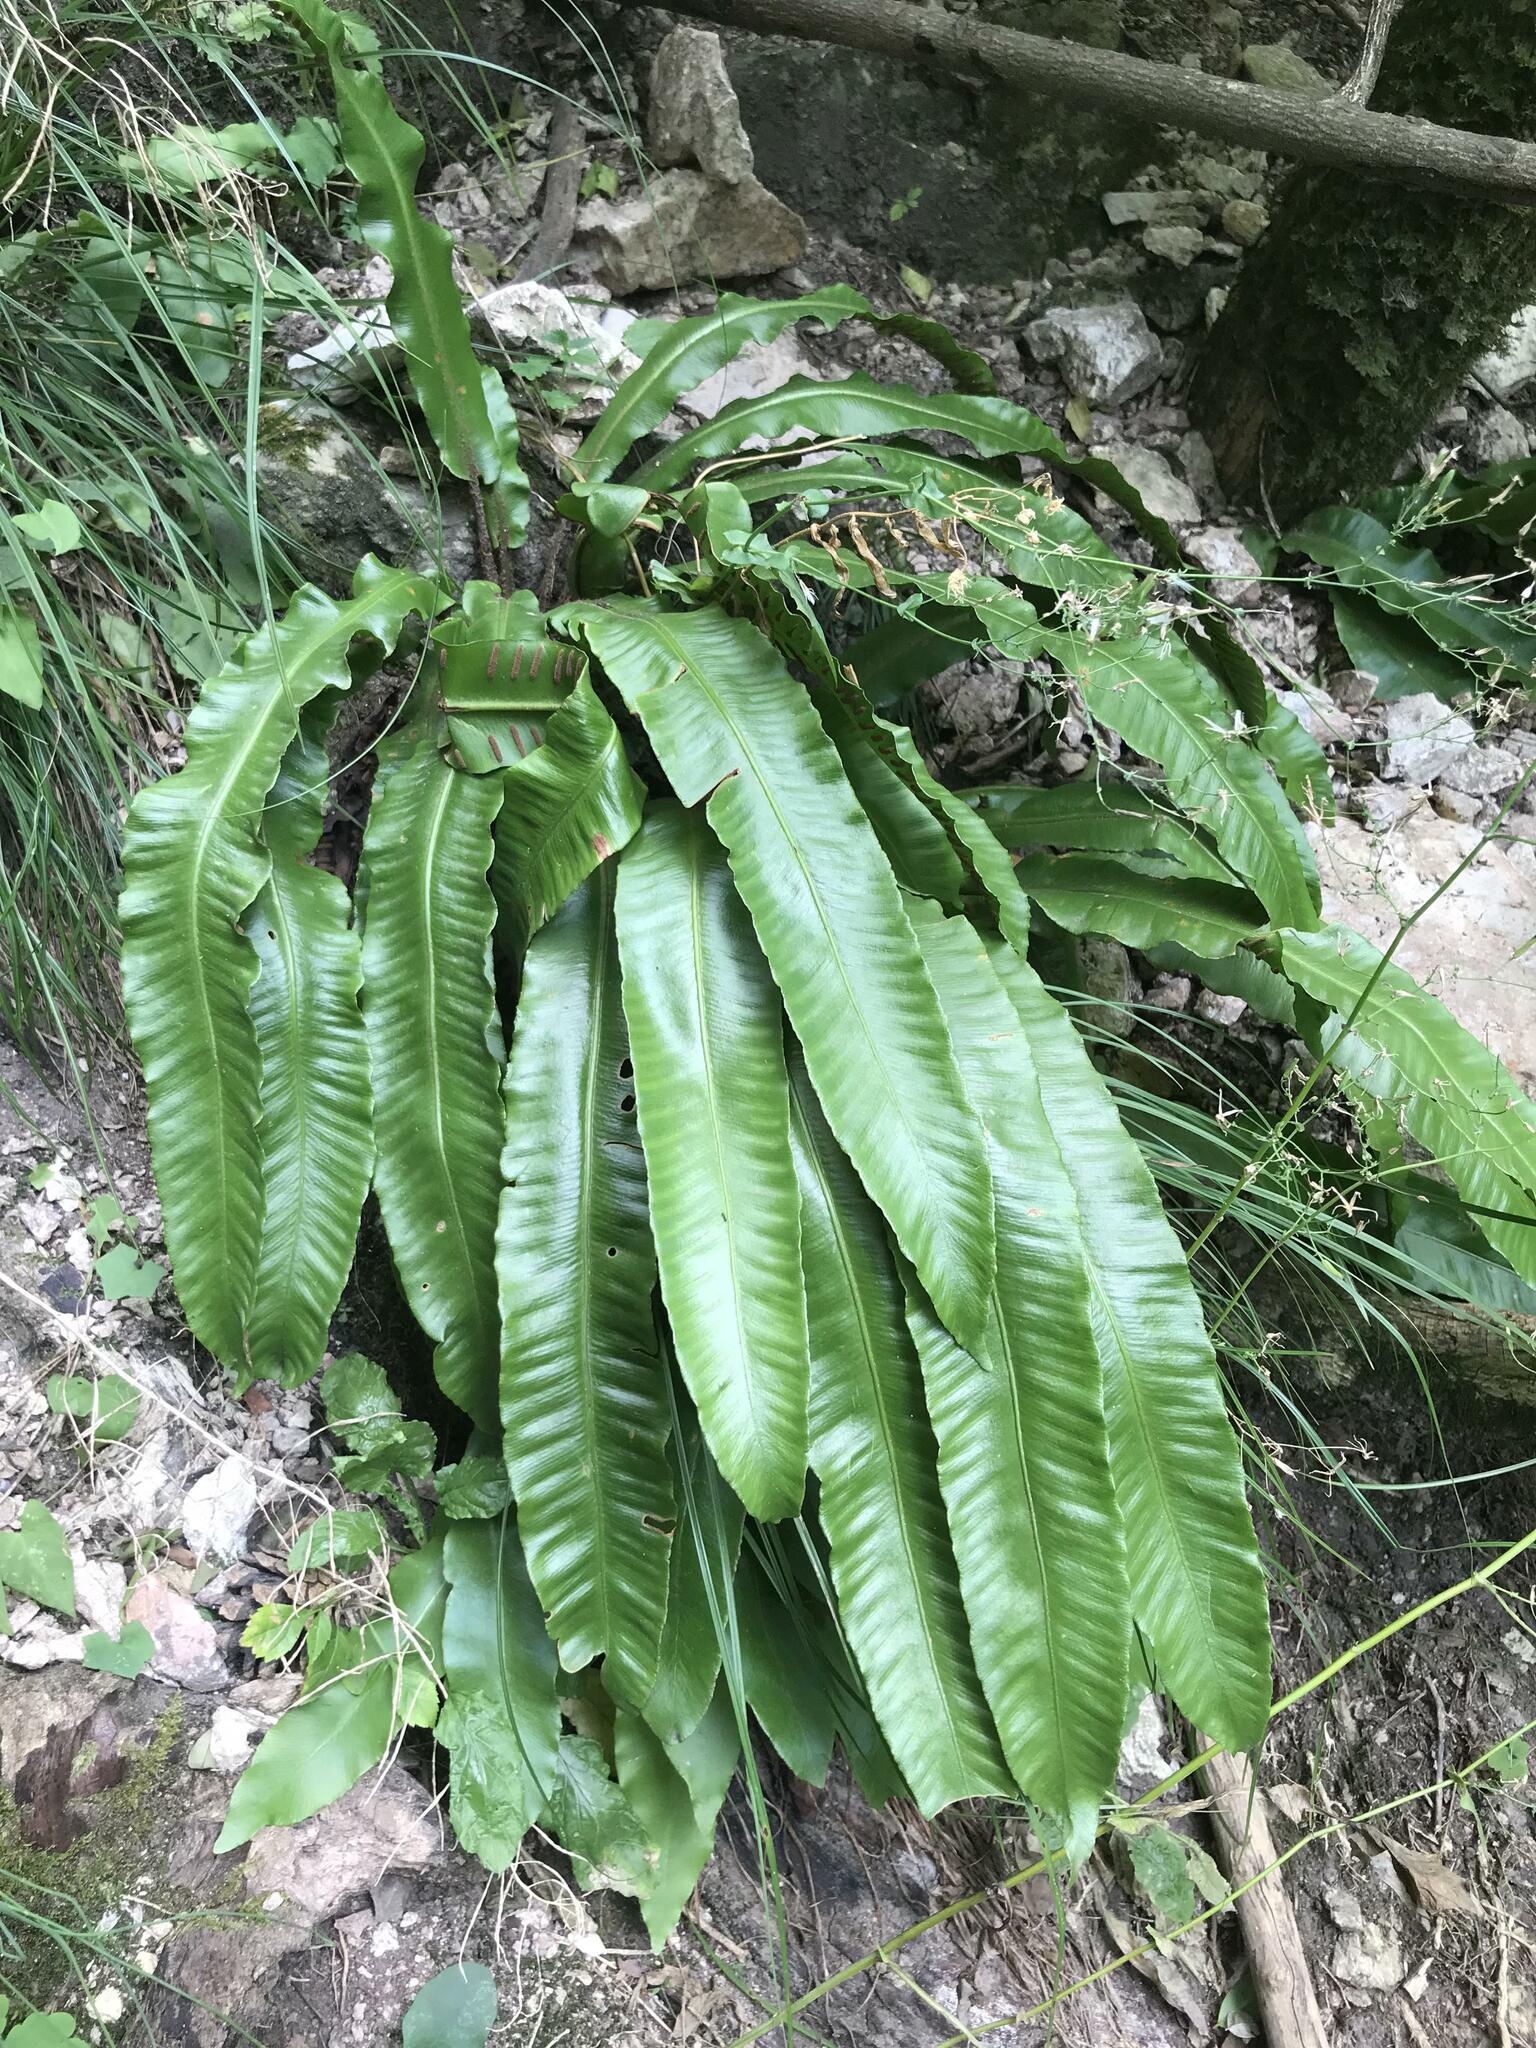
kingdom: Plantae
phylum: Tracheophyta
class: Polypodiopsida
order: Polypodiales
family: Aspleniaceae
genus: Asplenium
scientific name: Asplenium scolopendrium
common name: Hart's-tongue fern
